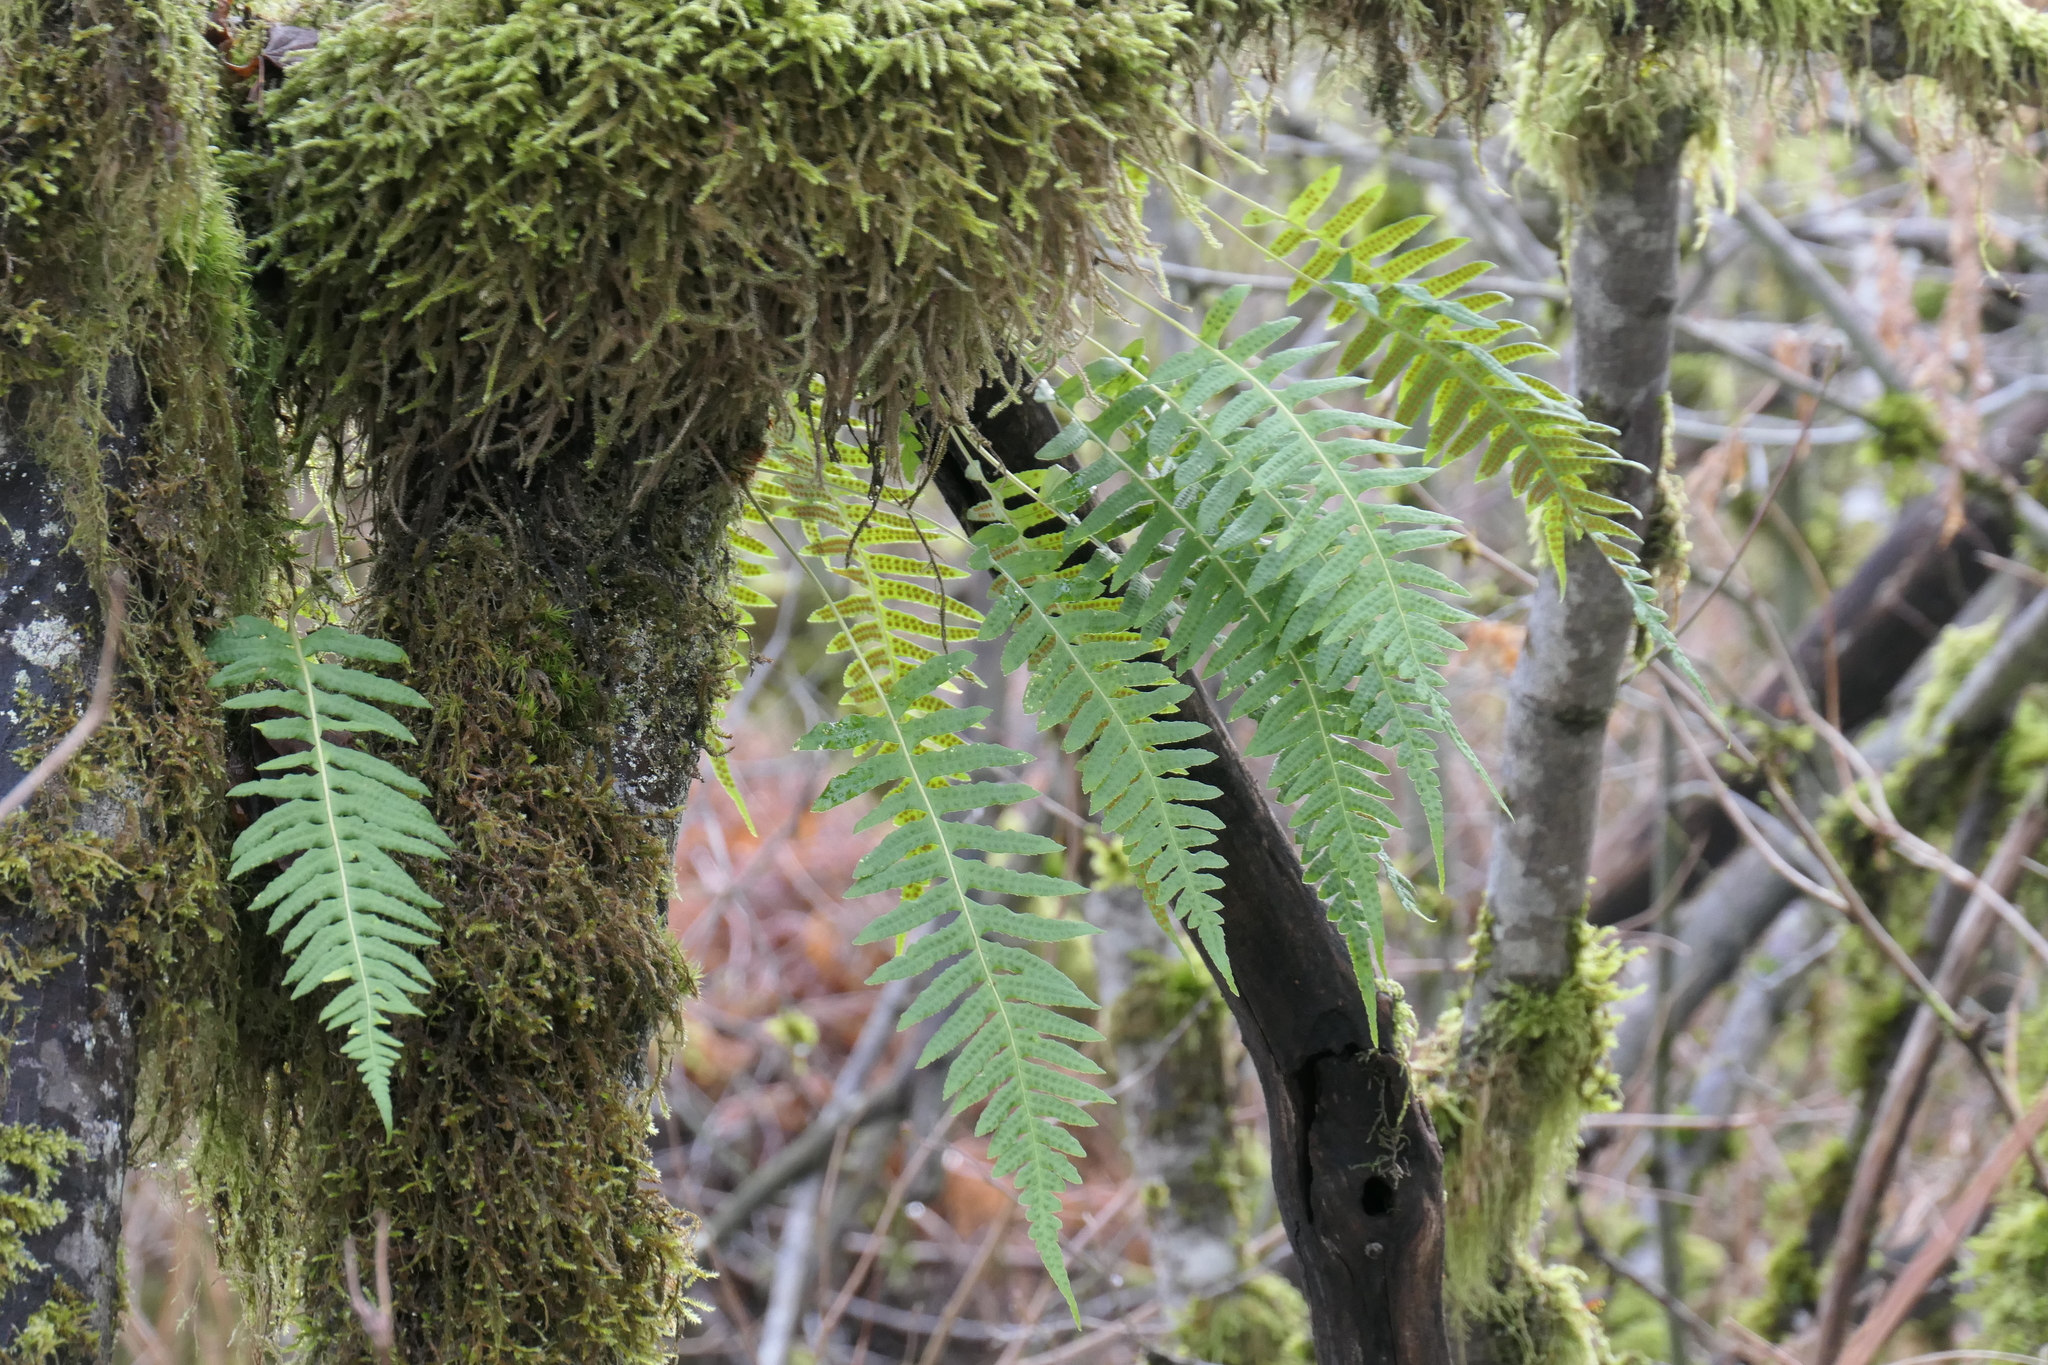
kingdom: Plantae
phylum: Tracheophyta
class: Polypodiopsida
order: Polypodiales
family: Polypodiaceae
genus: Polypodium
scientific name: Polypodium glycyrrhiza
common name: Licorice fern
